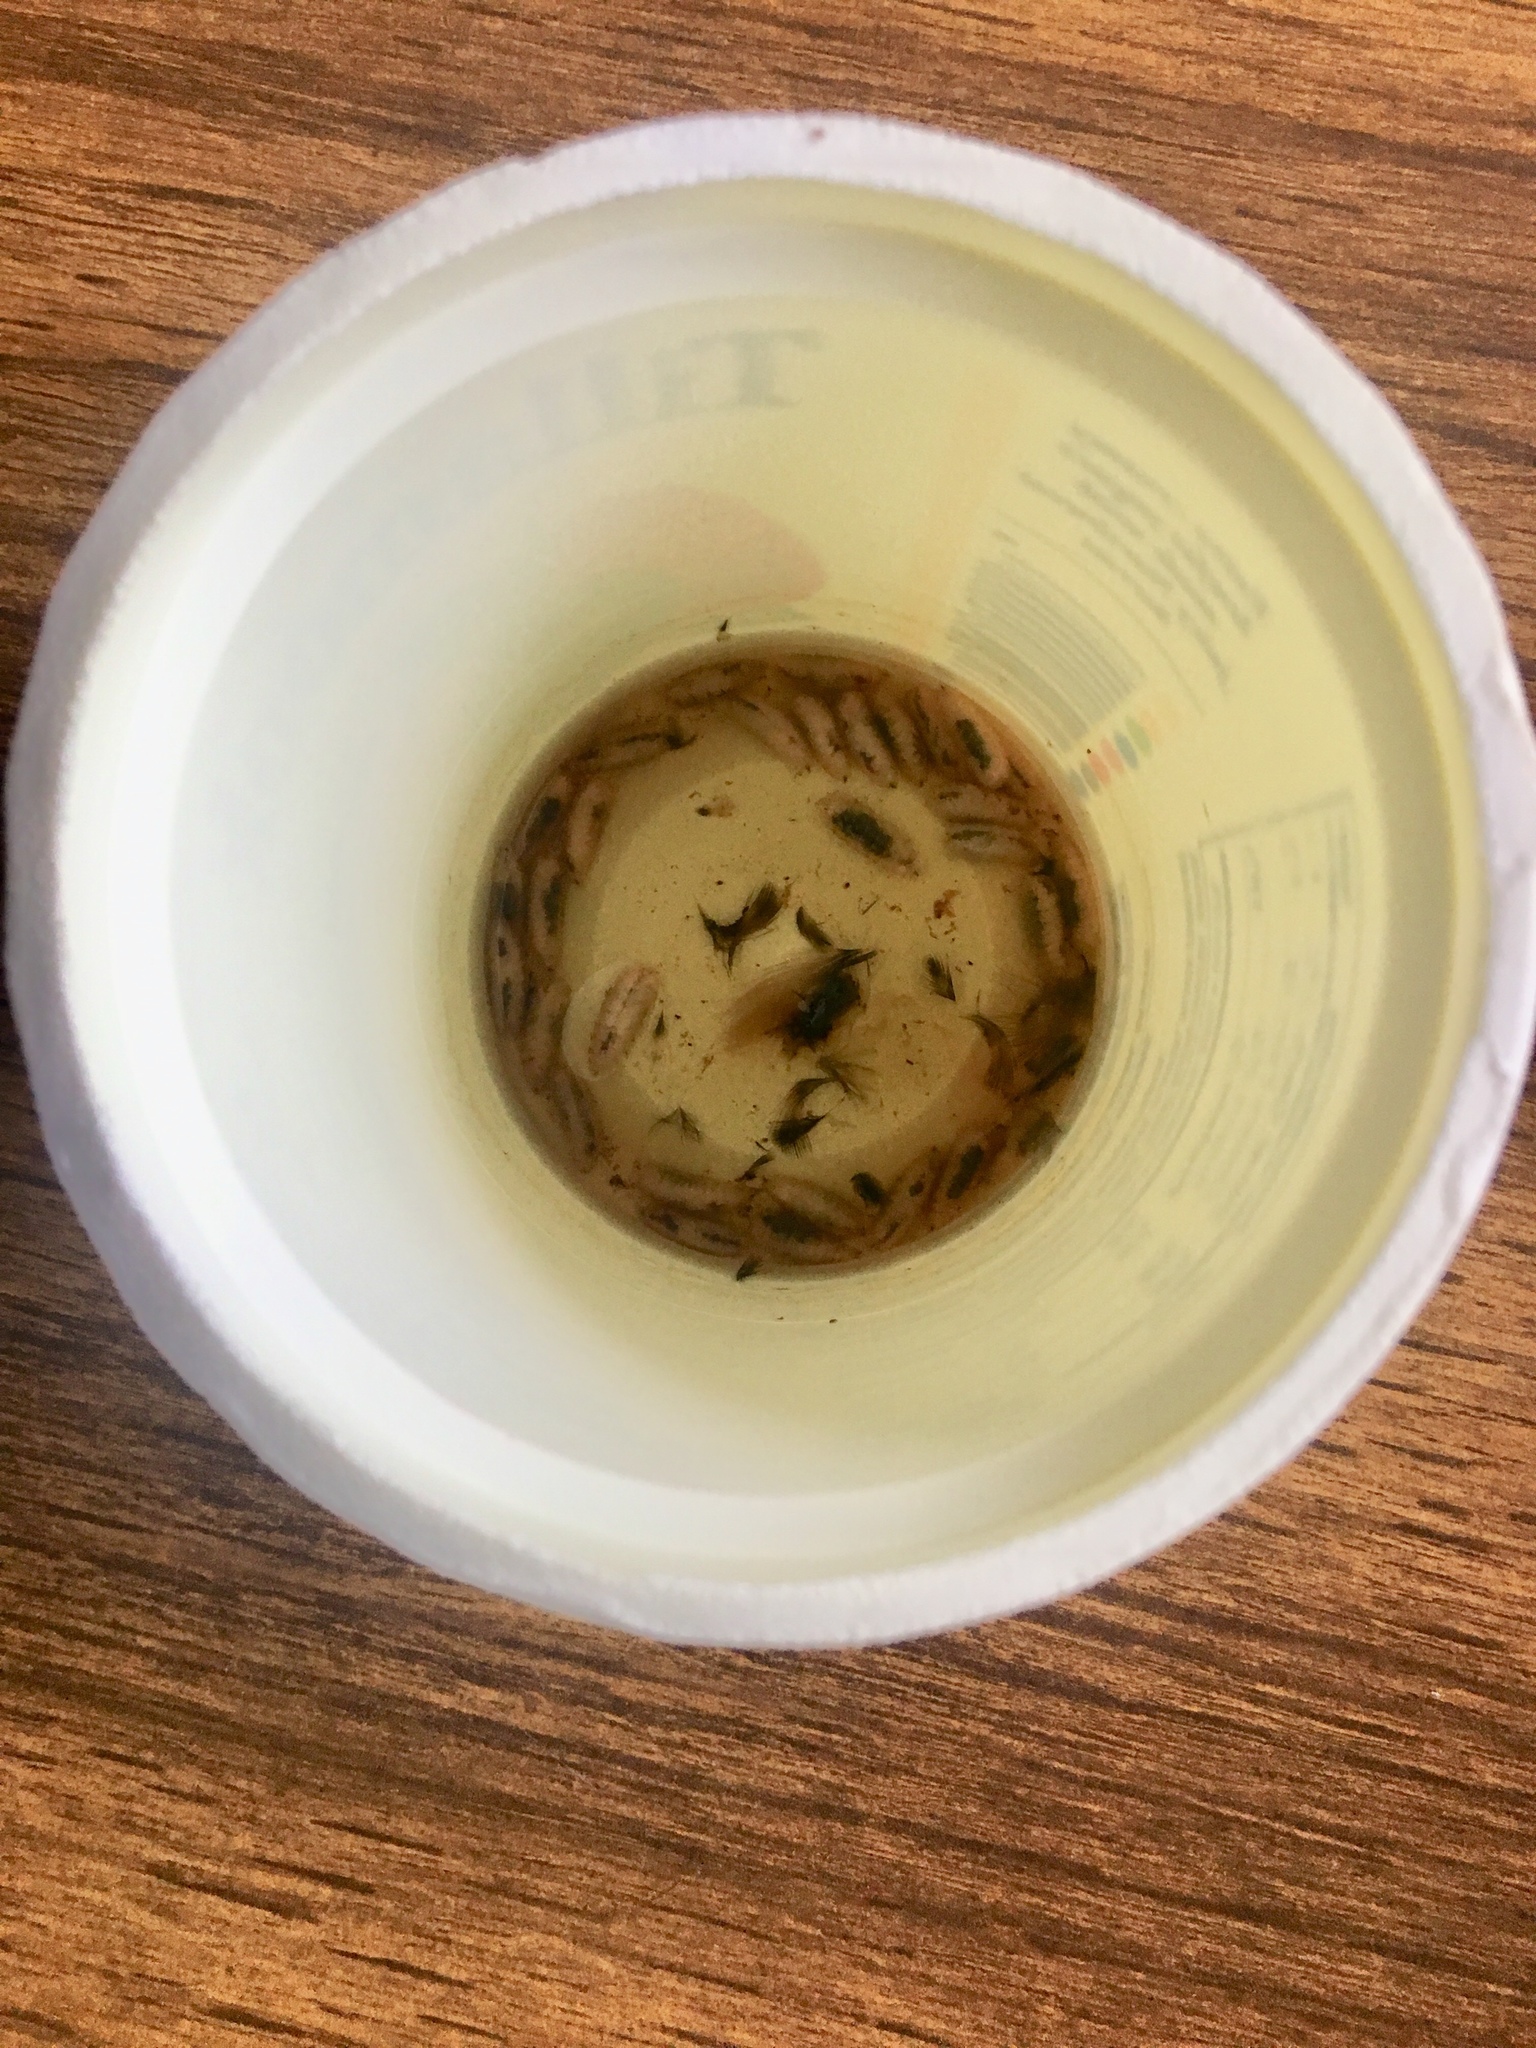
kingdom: Animalia
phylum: Arthropoda
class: Insecta
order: Diptera
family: Calliphoridae
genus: Trypocalliphora
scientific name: Trypocalliphora braueri
